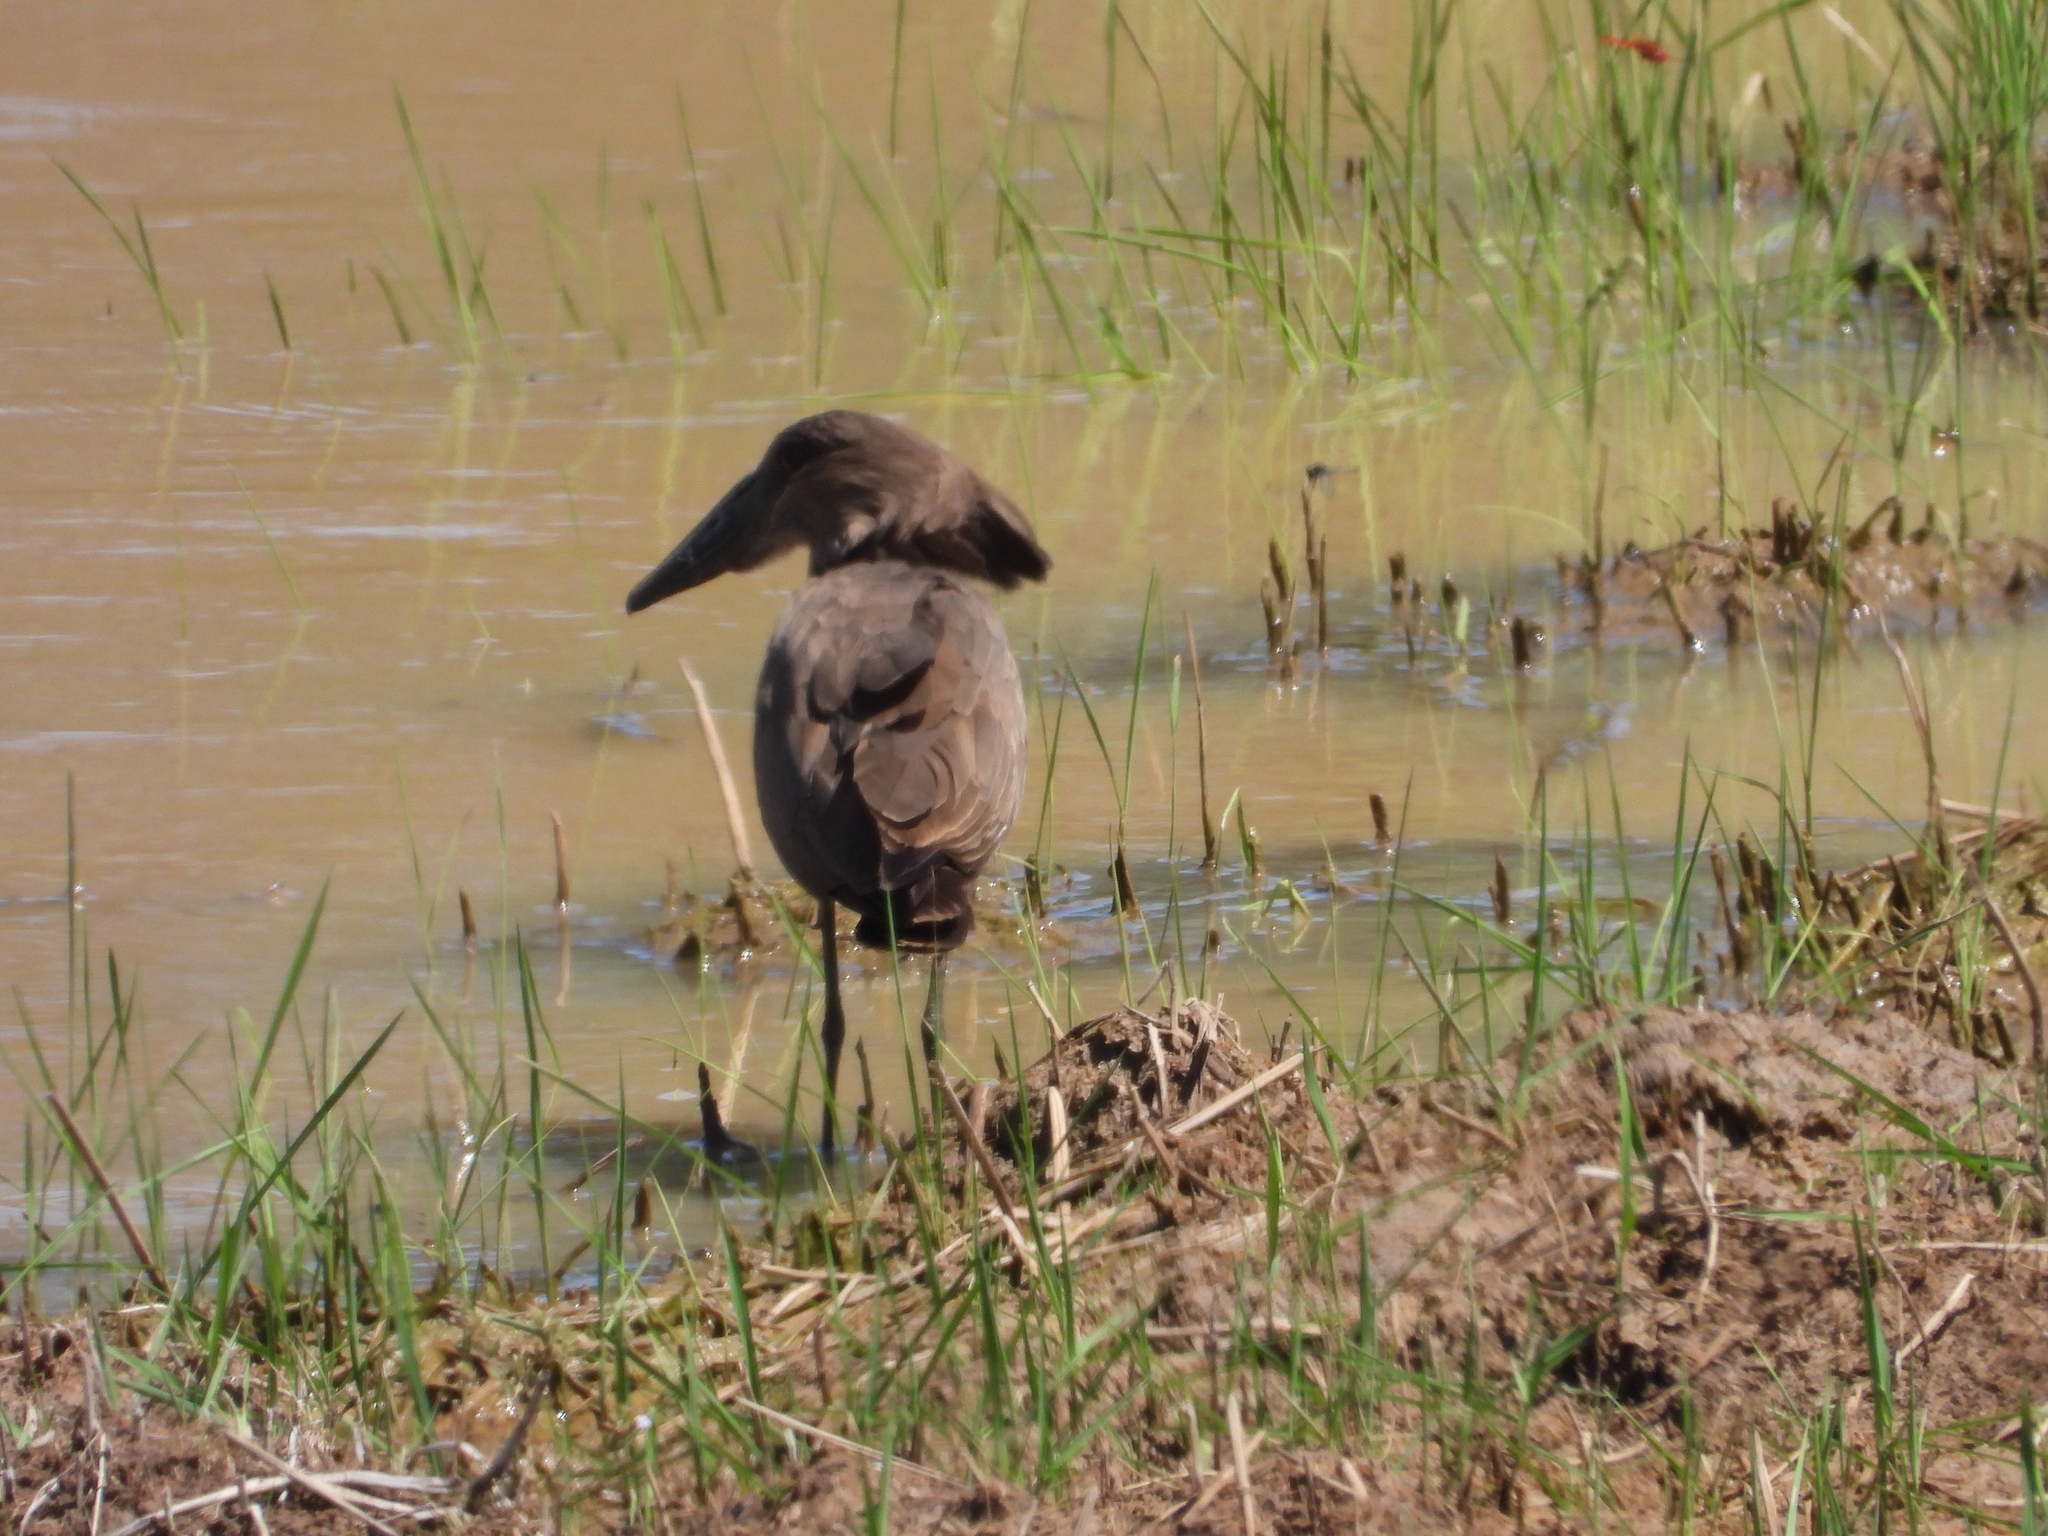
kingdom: Animalia
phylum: Chordata
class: Aves
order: Pelecaniformes
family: Scopidae
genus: Scopus
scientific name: Scopus umbretta
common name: Hamerkop
